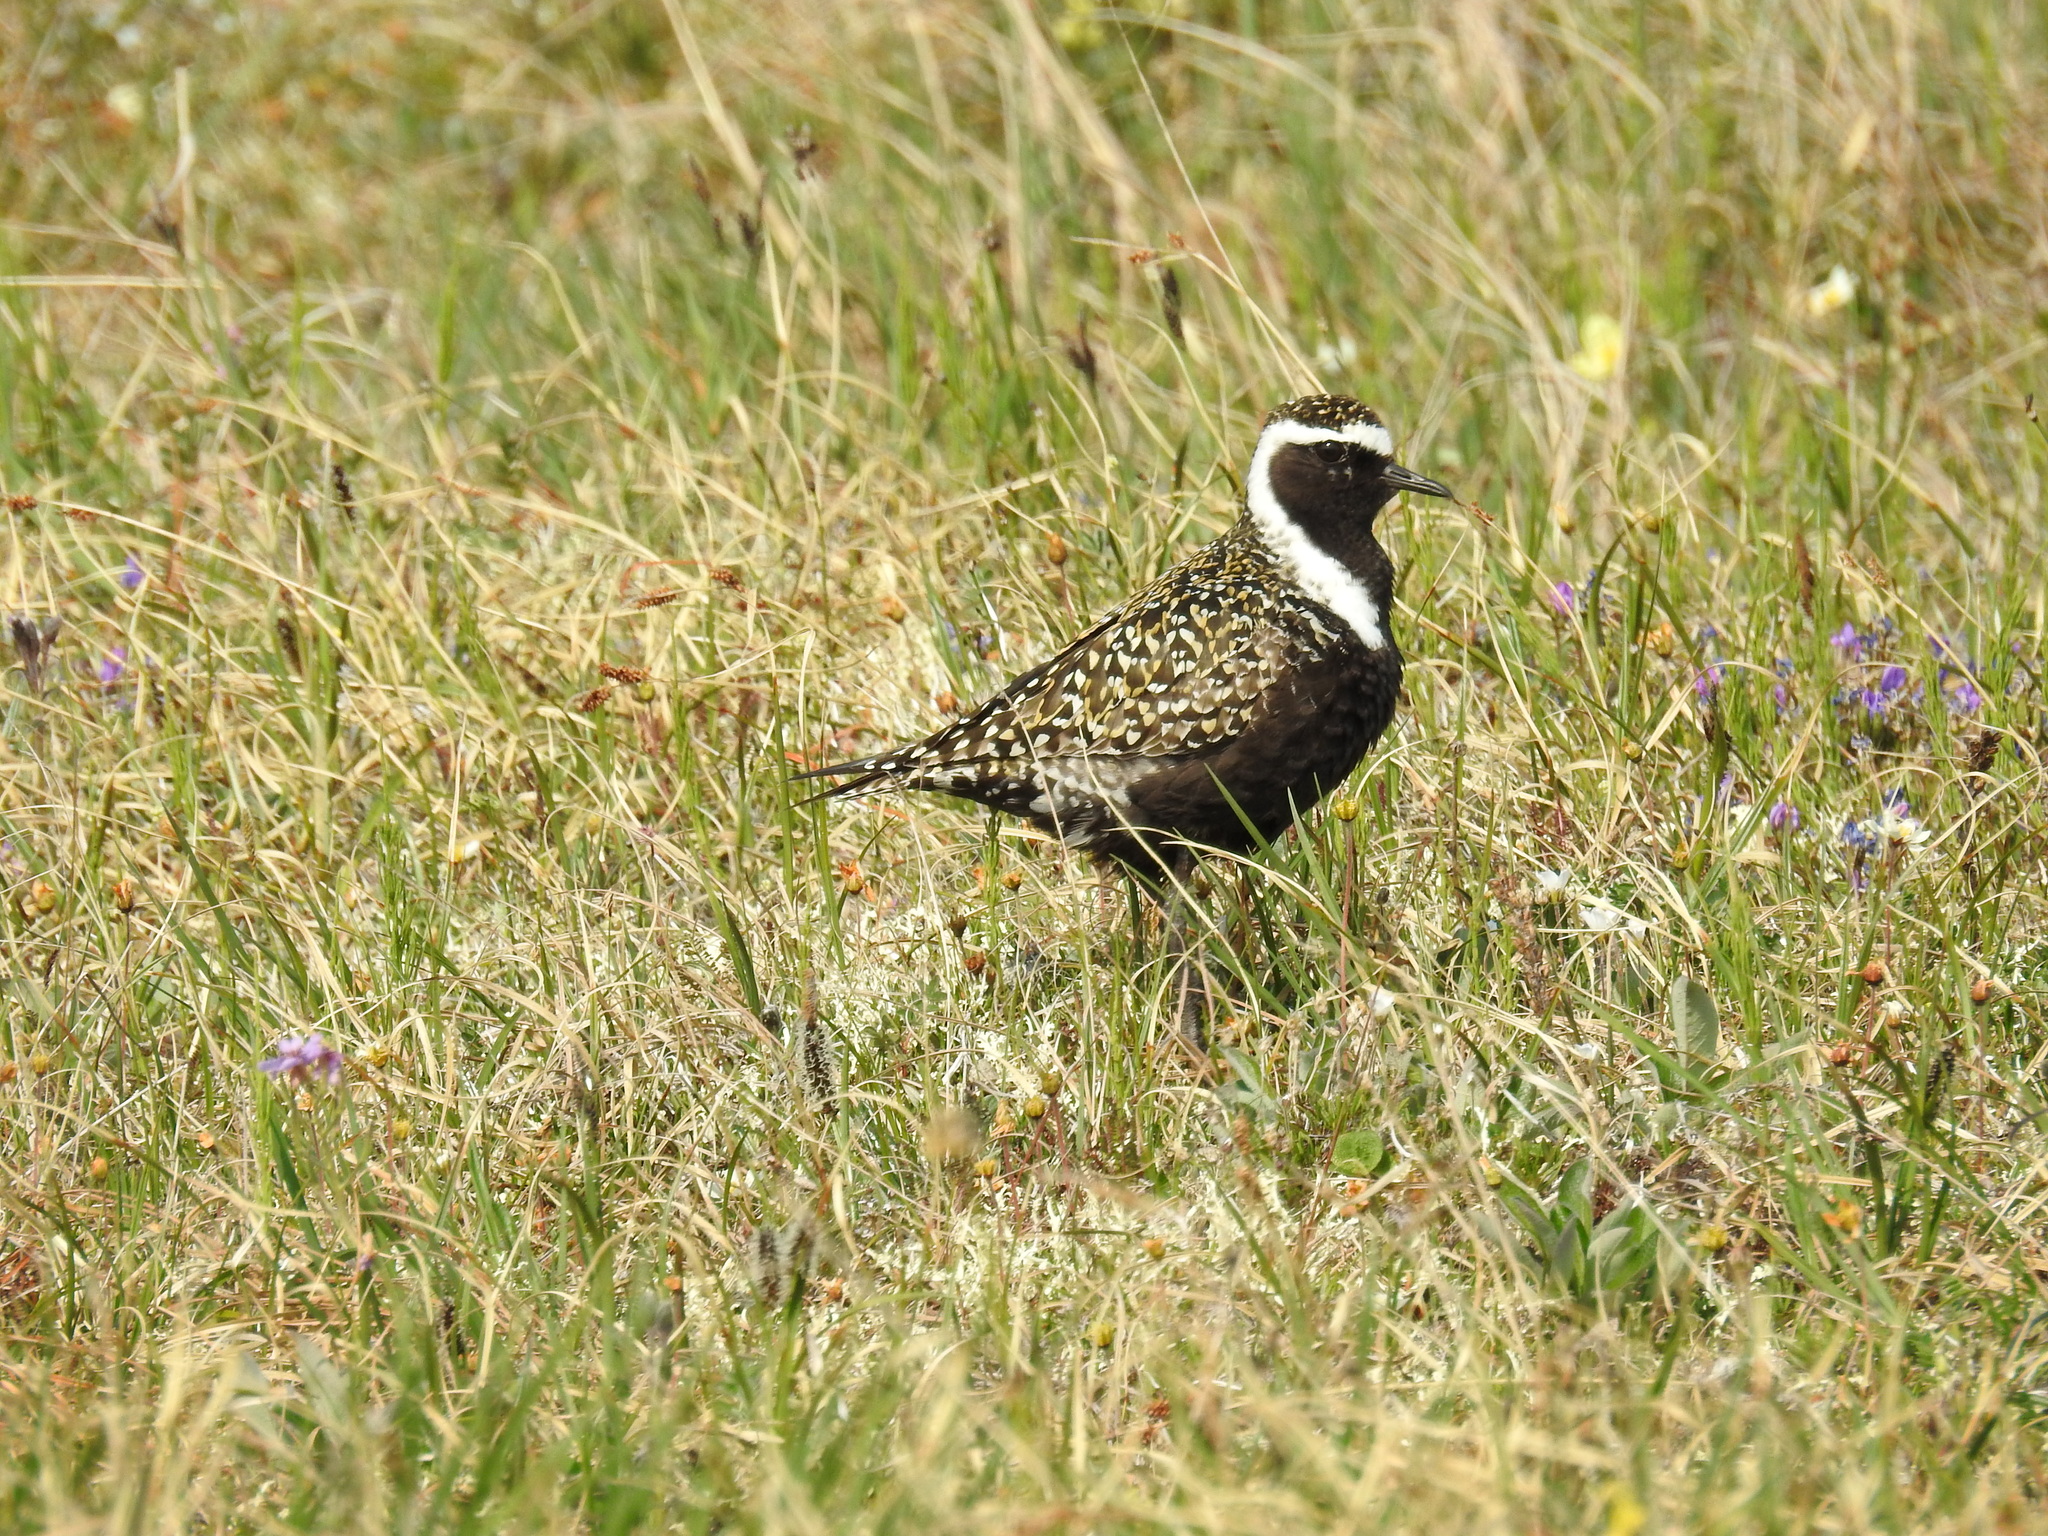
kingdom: Animalia
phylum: Chordata
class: Aves
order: Charadriiformes
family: Charadriidae
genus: Pluvialis
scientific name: Pluvialis dominica
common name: American golden plover
